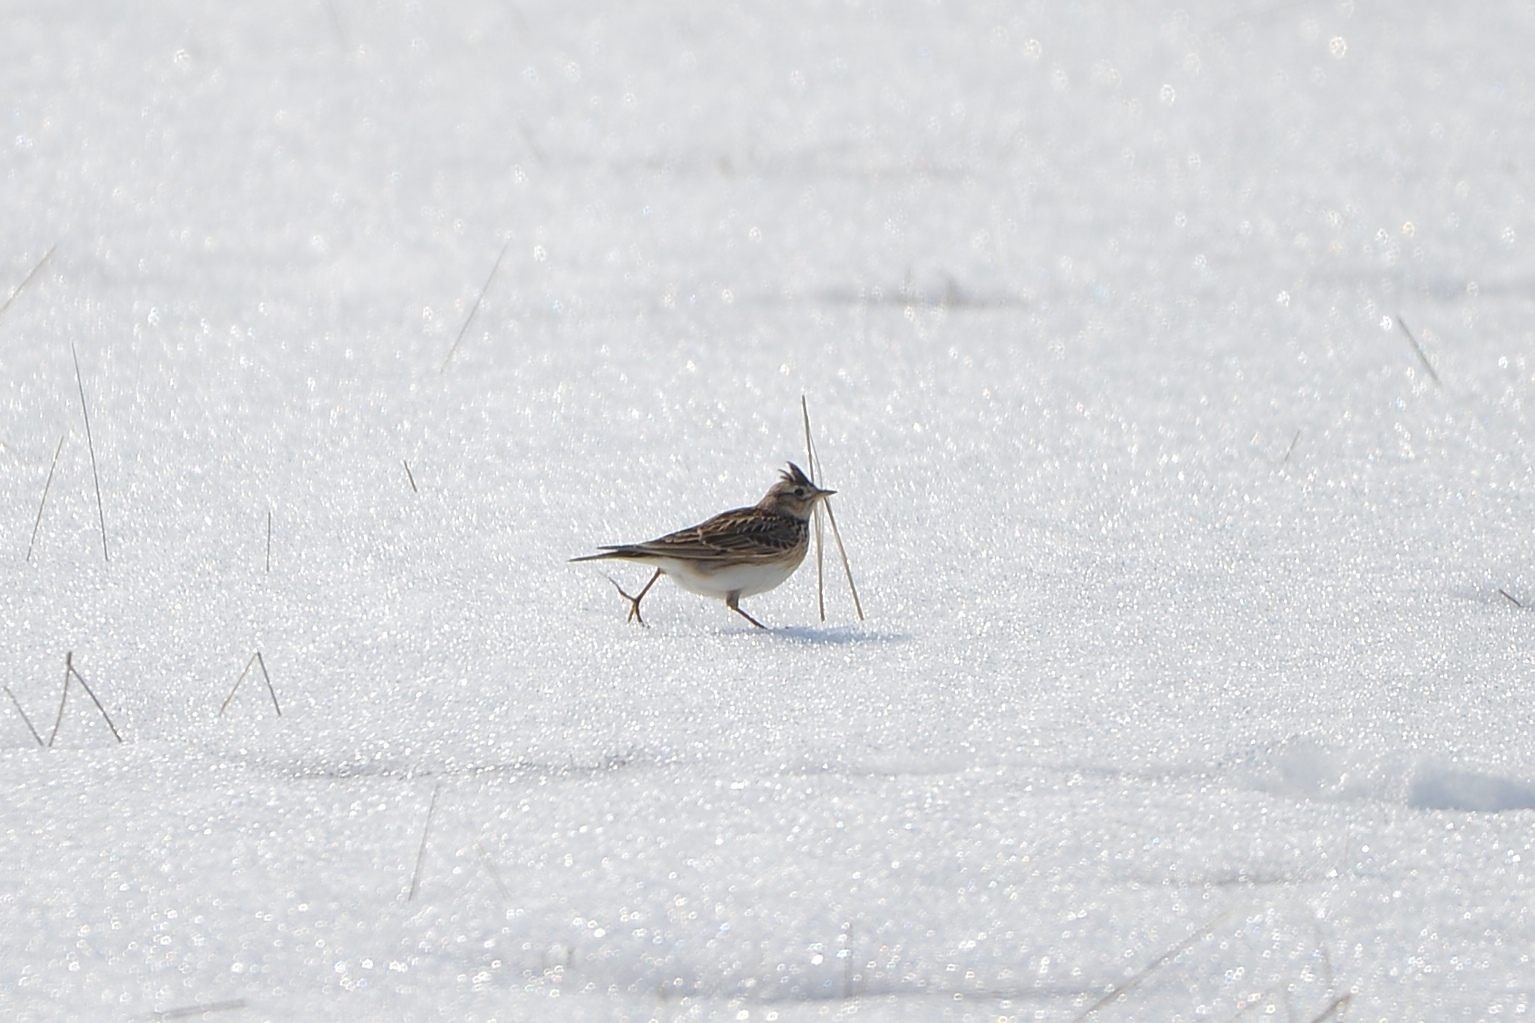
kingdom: Animalia
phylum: Chordata
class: Aves
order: Passeriformes
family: Alaudidae
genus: Alauda
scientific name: Alauda arvensis
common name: Eurasian skylark
